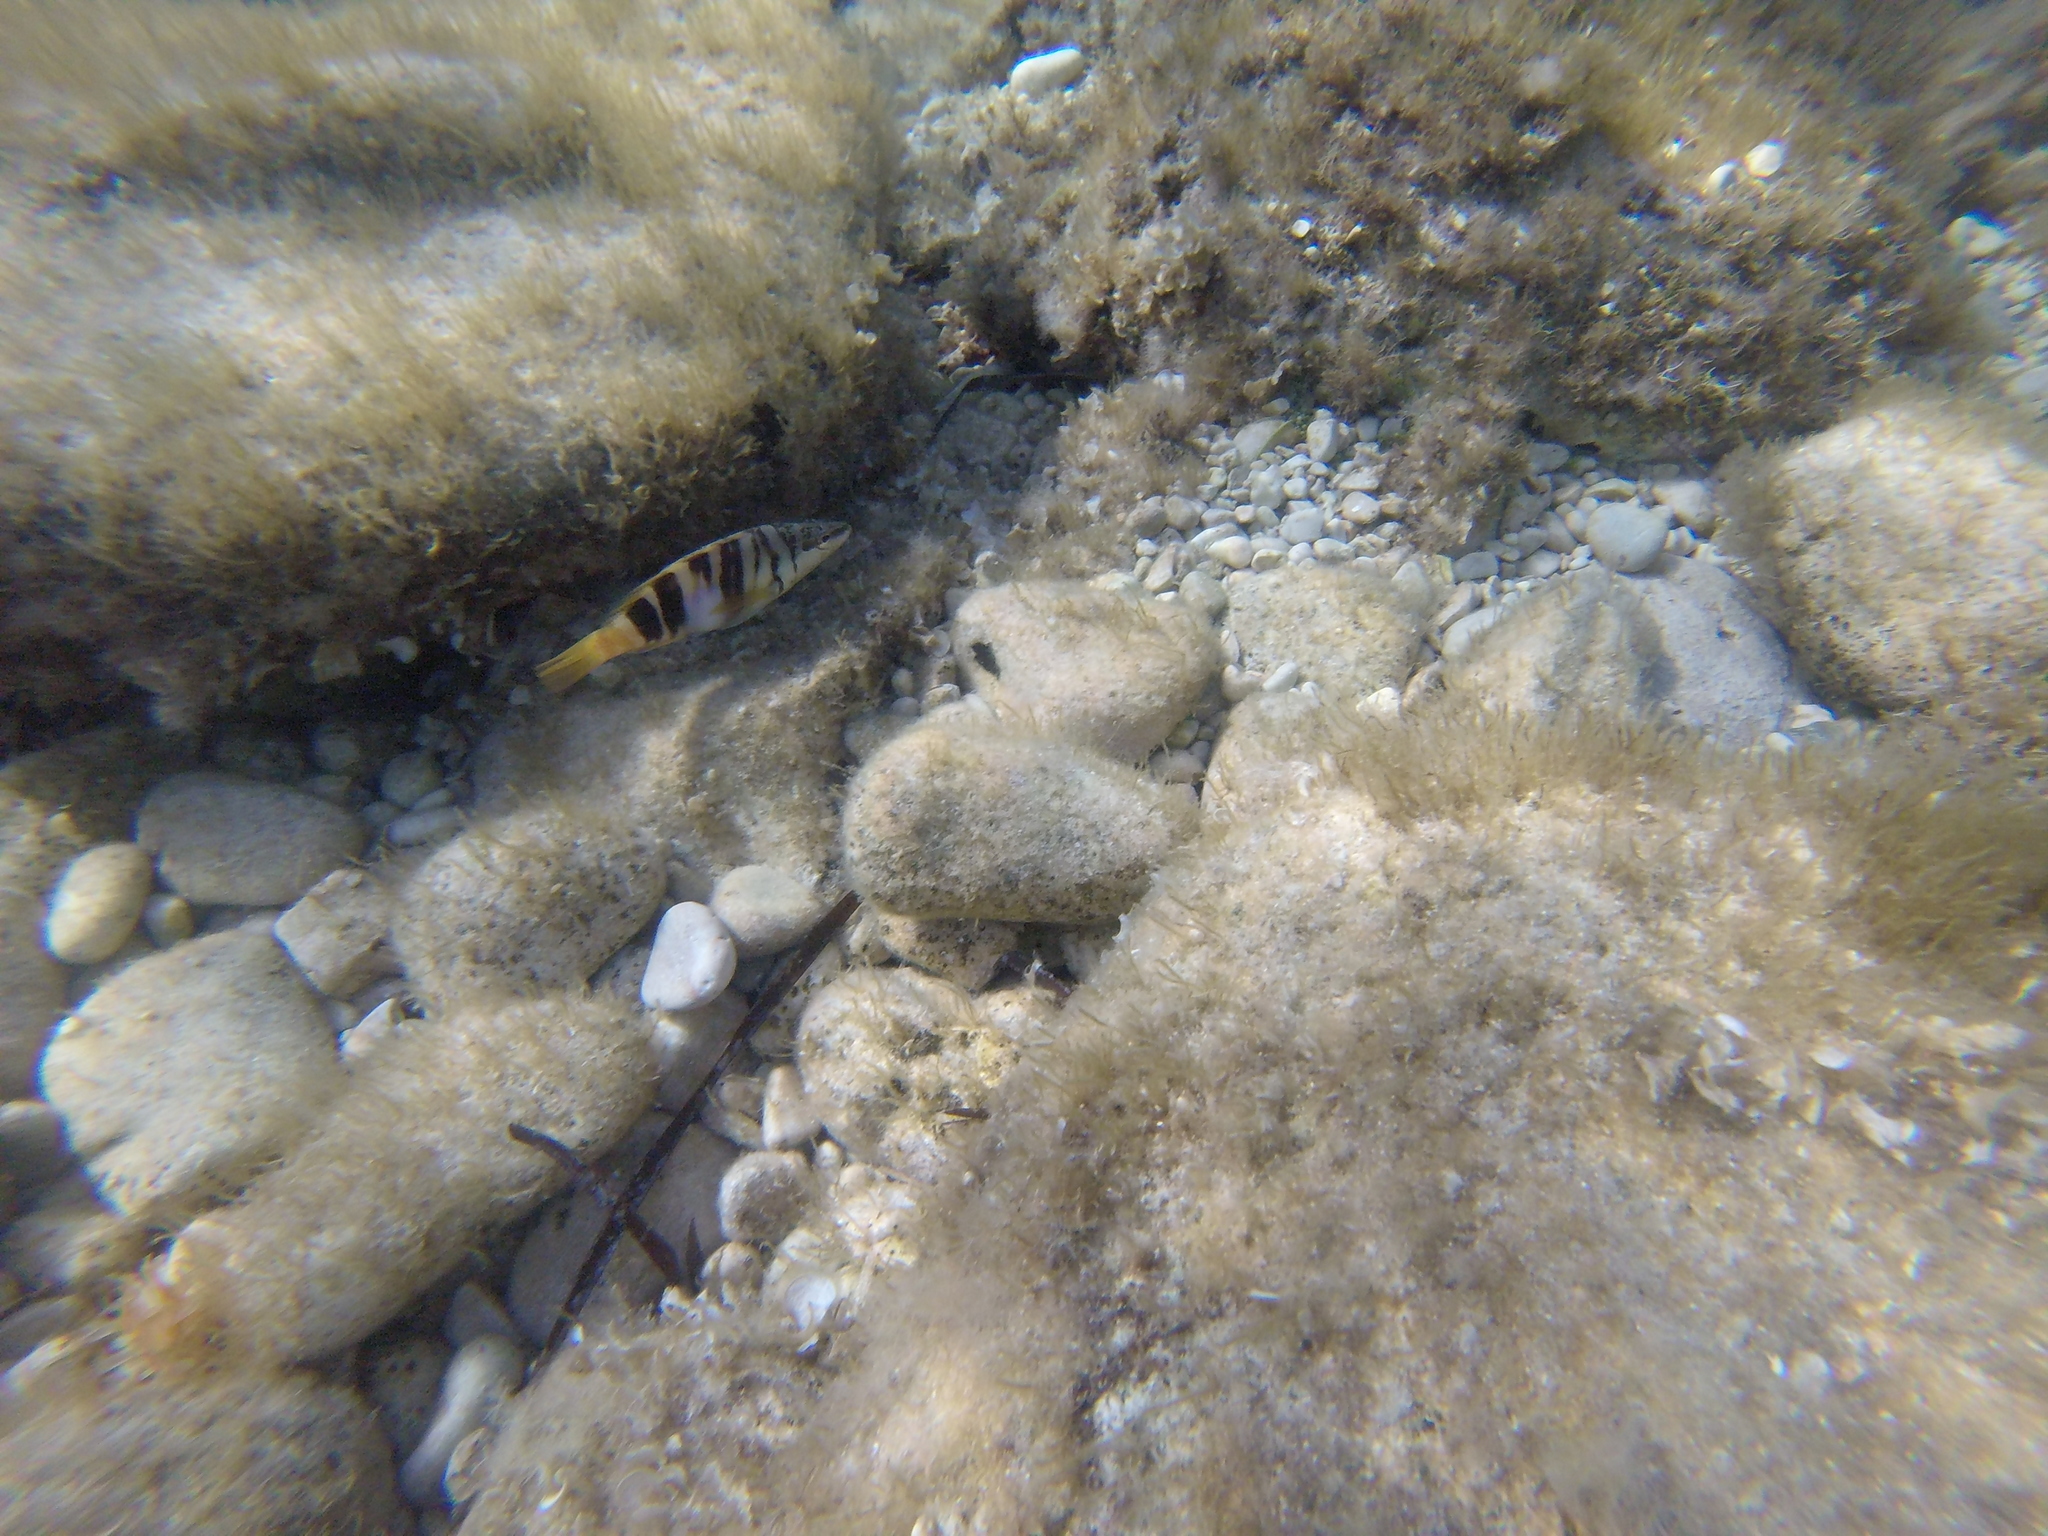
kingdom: Animalia
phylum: Chordata
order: Perciformes
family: Serranidae
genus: Serranus
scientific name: Serranus scriba
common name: Painted comber
